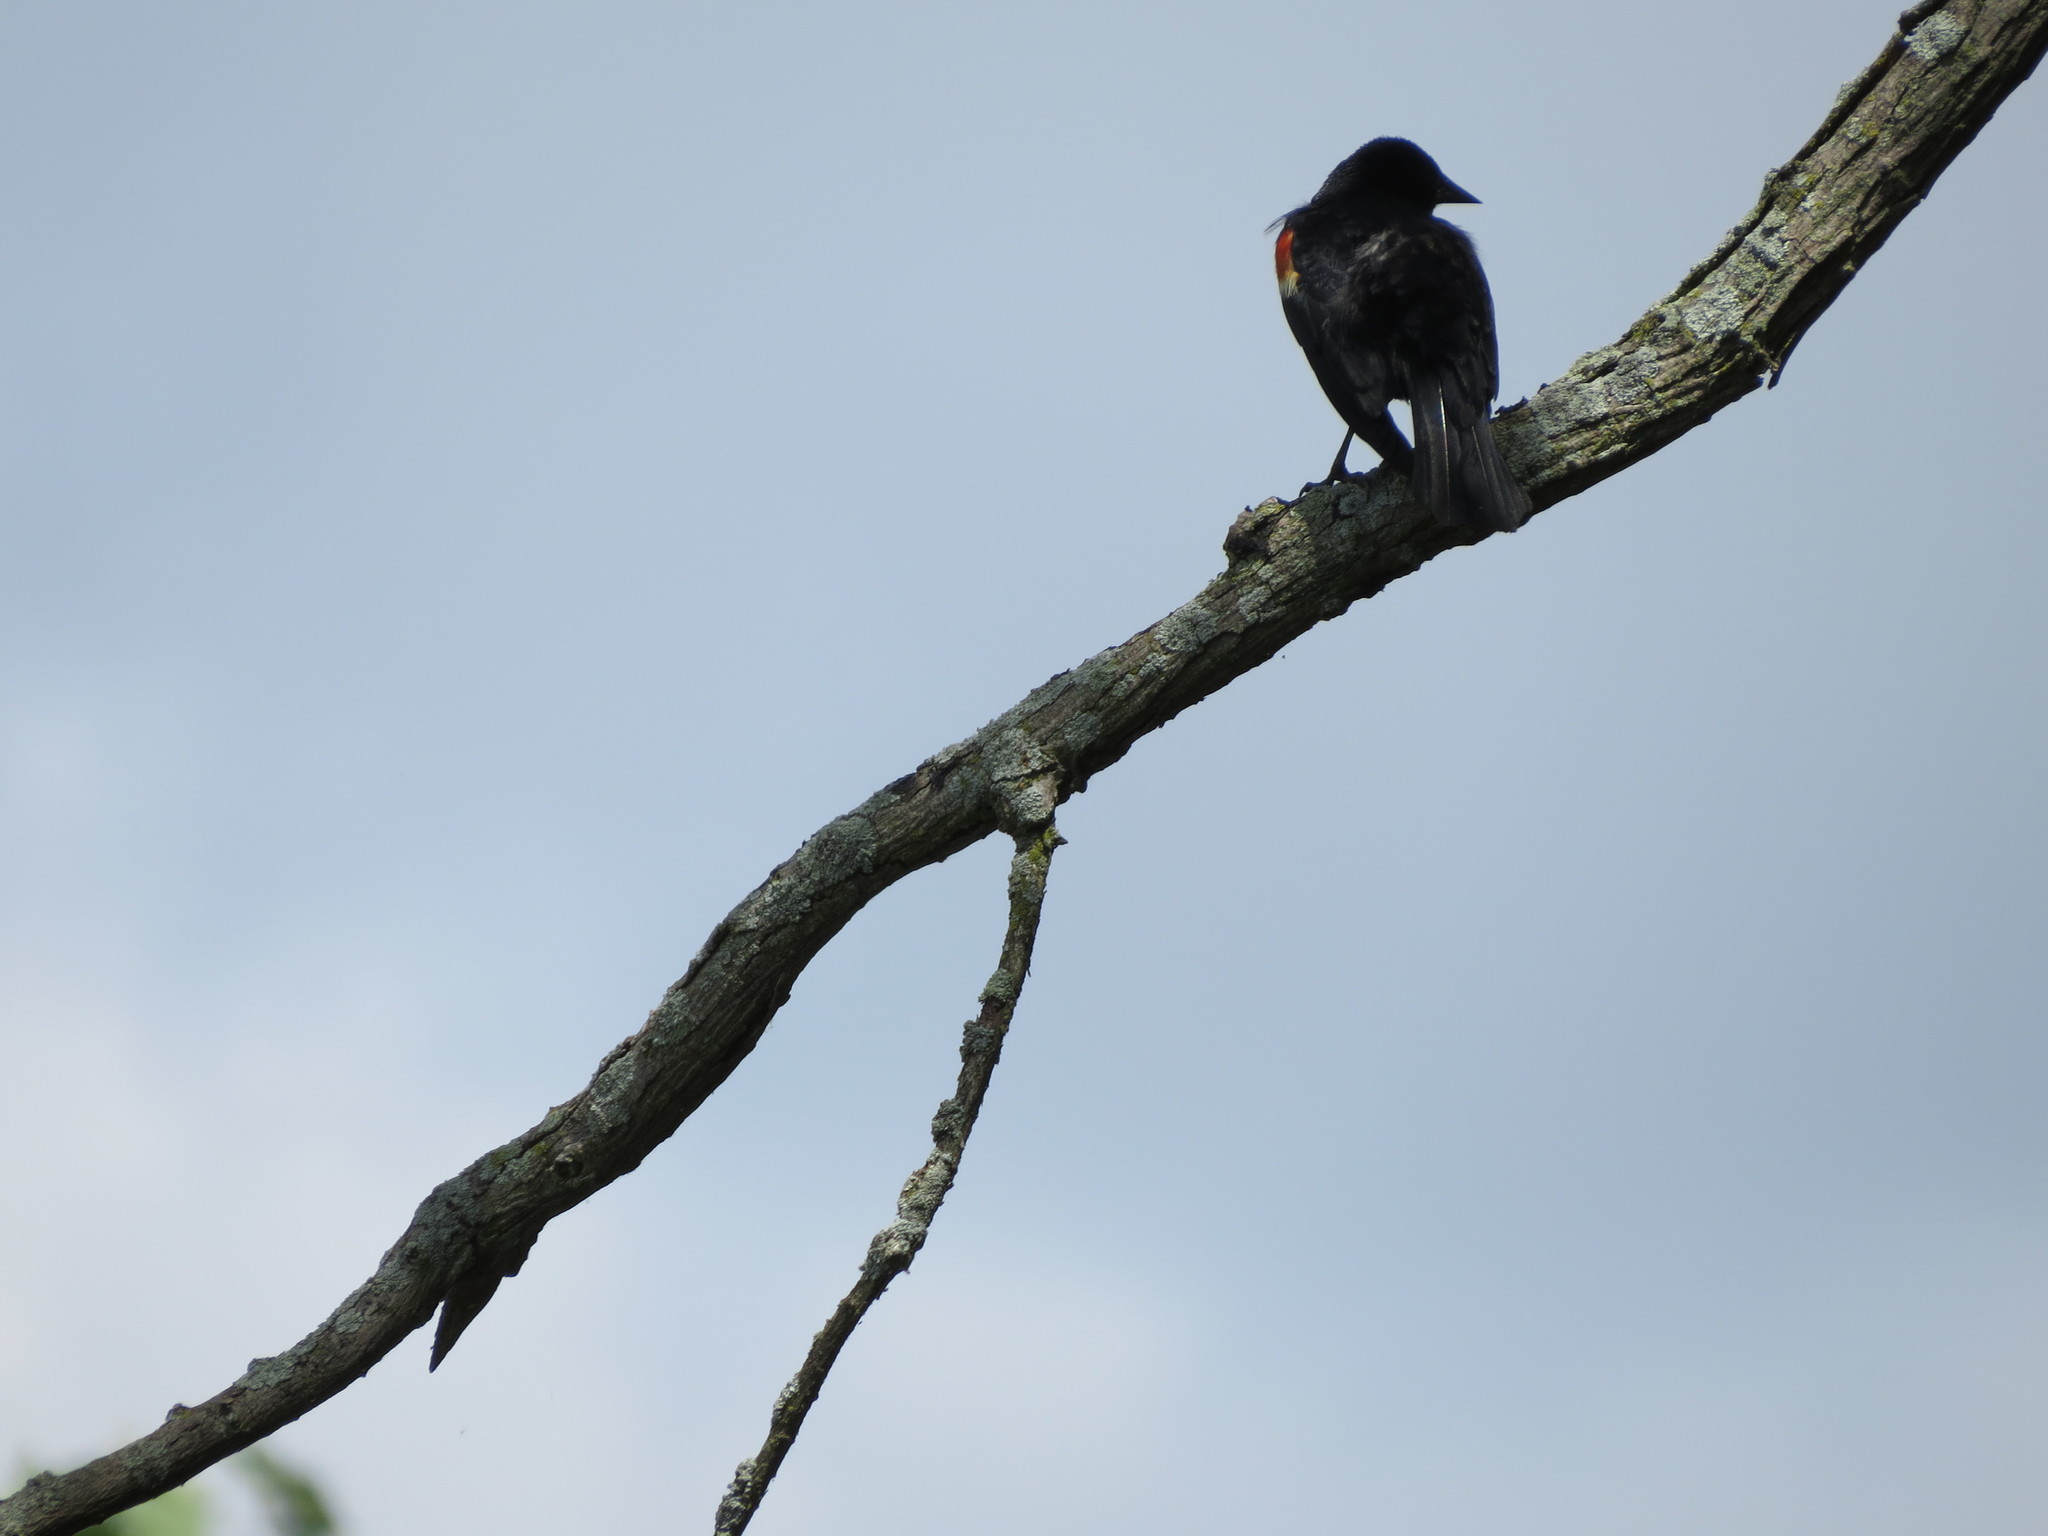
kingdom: Animalia
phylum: Chordata
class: Aves
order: Passeriformes
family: Icteridae
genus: Agelaius
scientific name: Agelaius phoeniceus
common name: Red-winged blackbird
